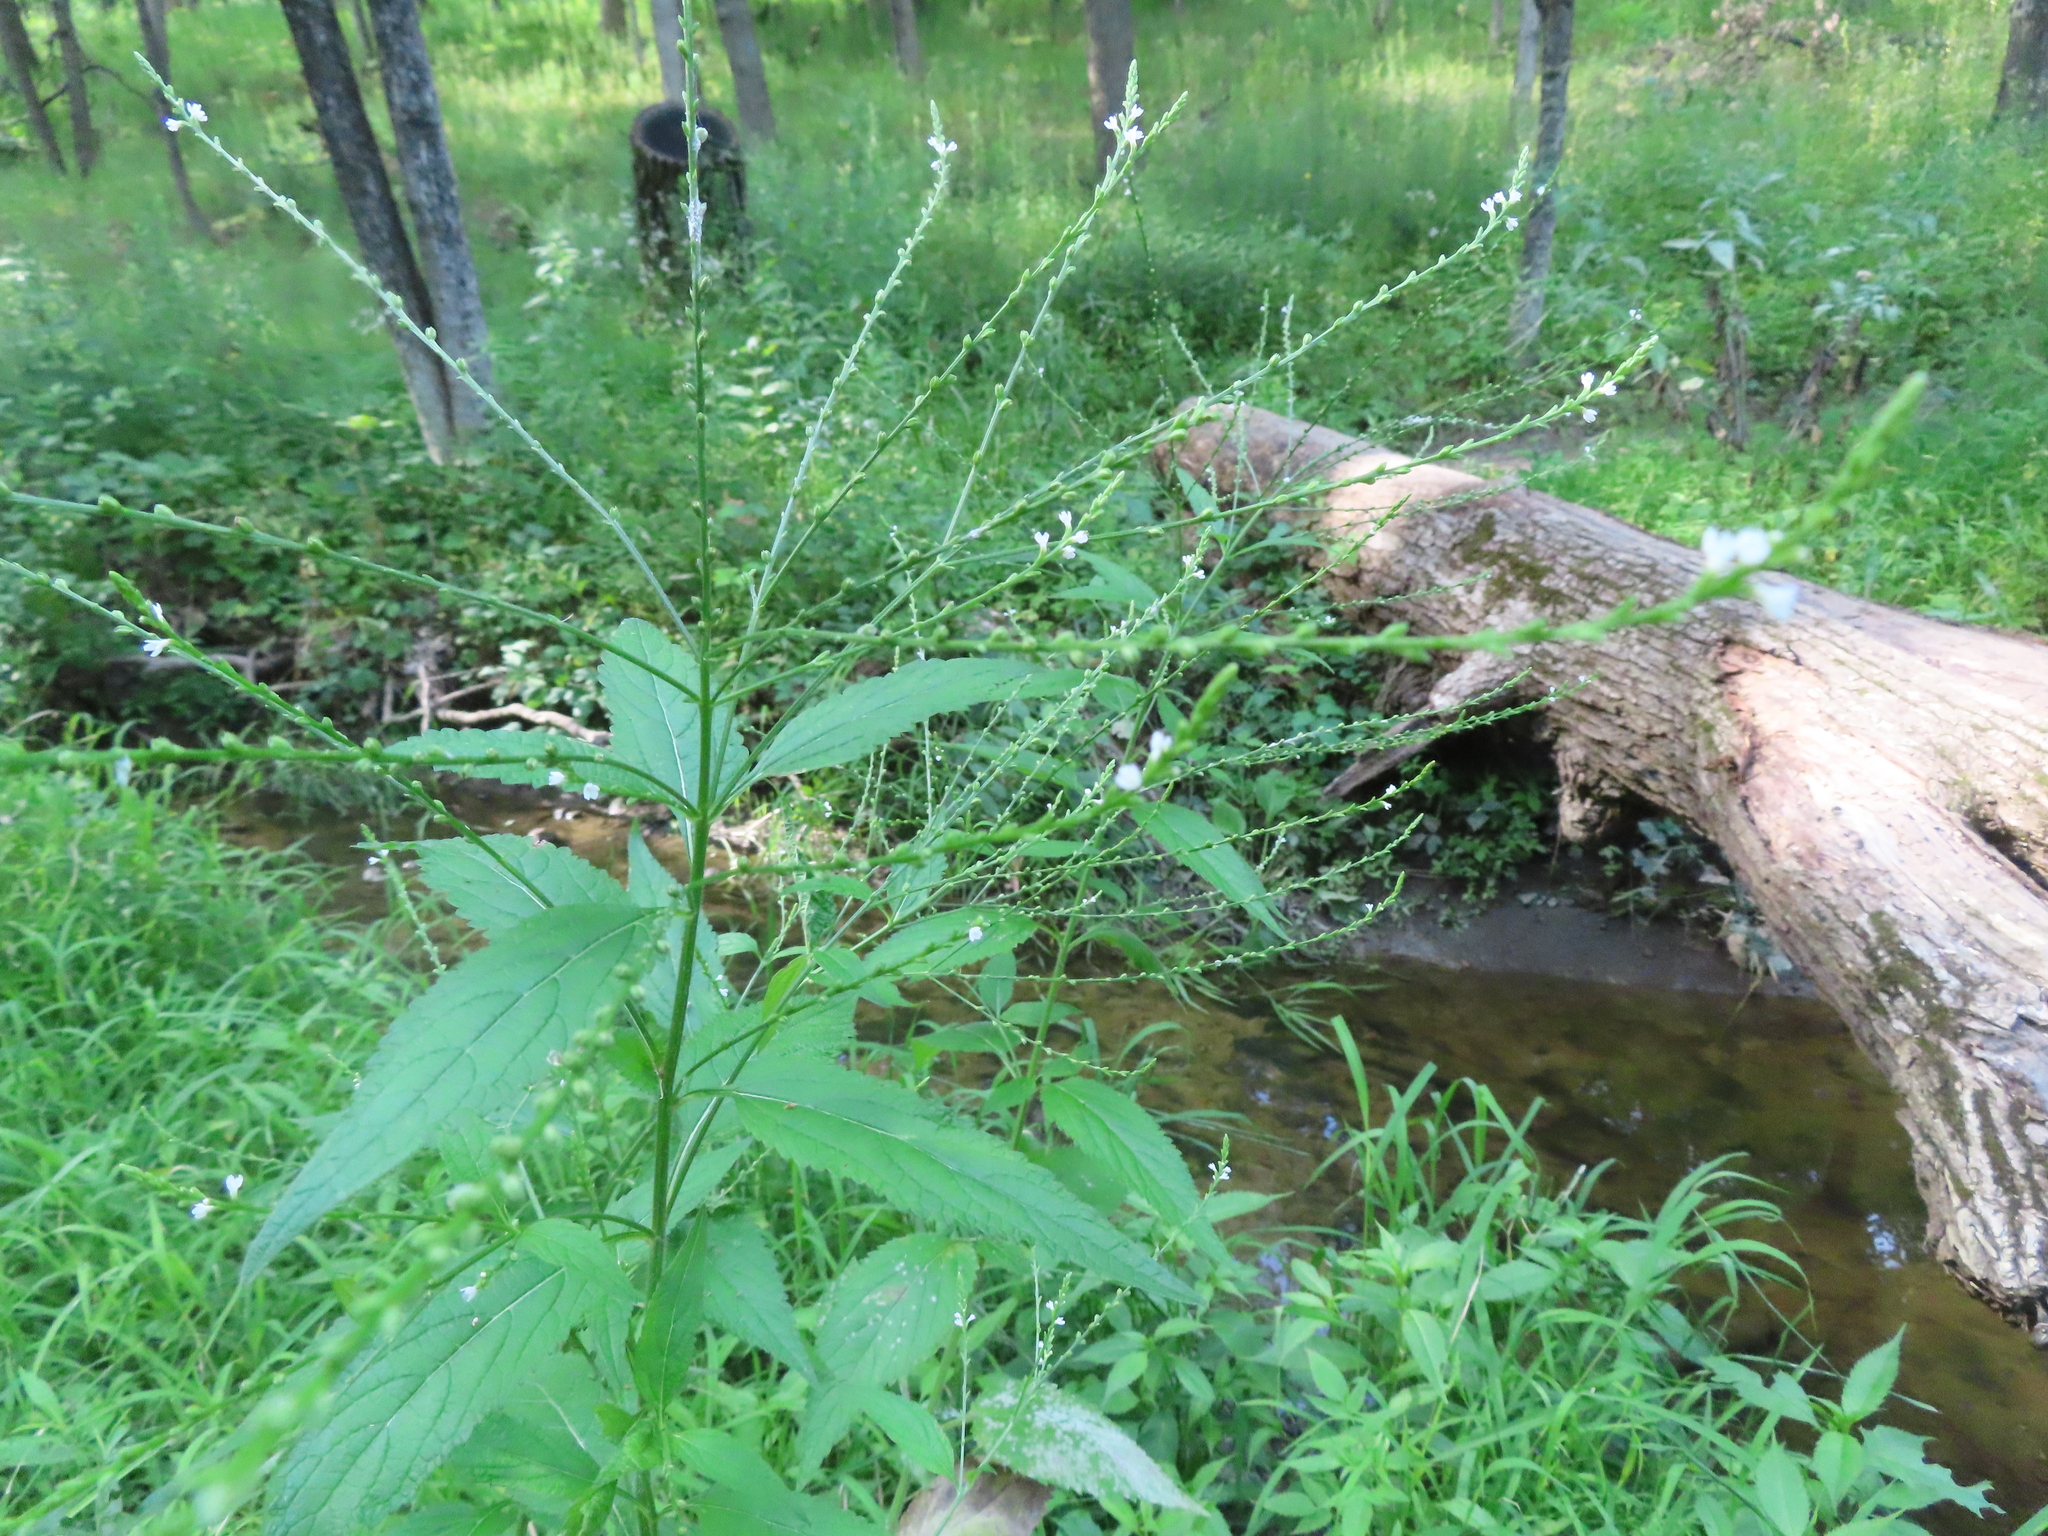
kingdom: Plantae
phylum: Tracheophyta
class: Magnoliopsida
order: Lamiales
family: Verbenaceae
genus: Verbena
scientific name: Verbena urticifolia
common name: Nettle-leaved vervain
